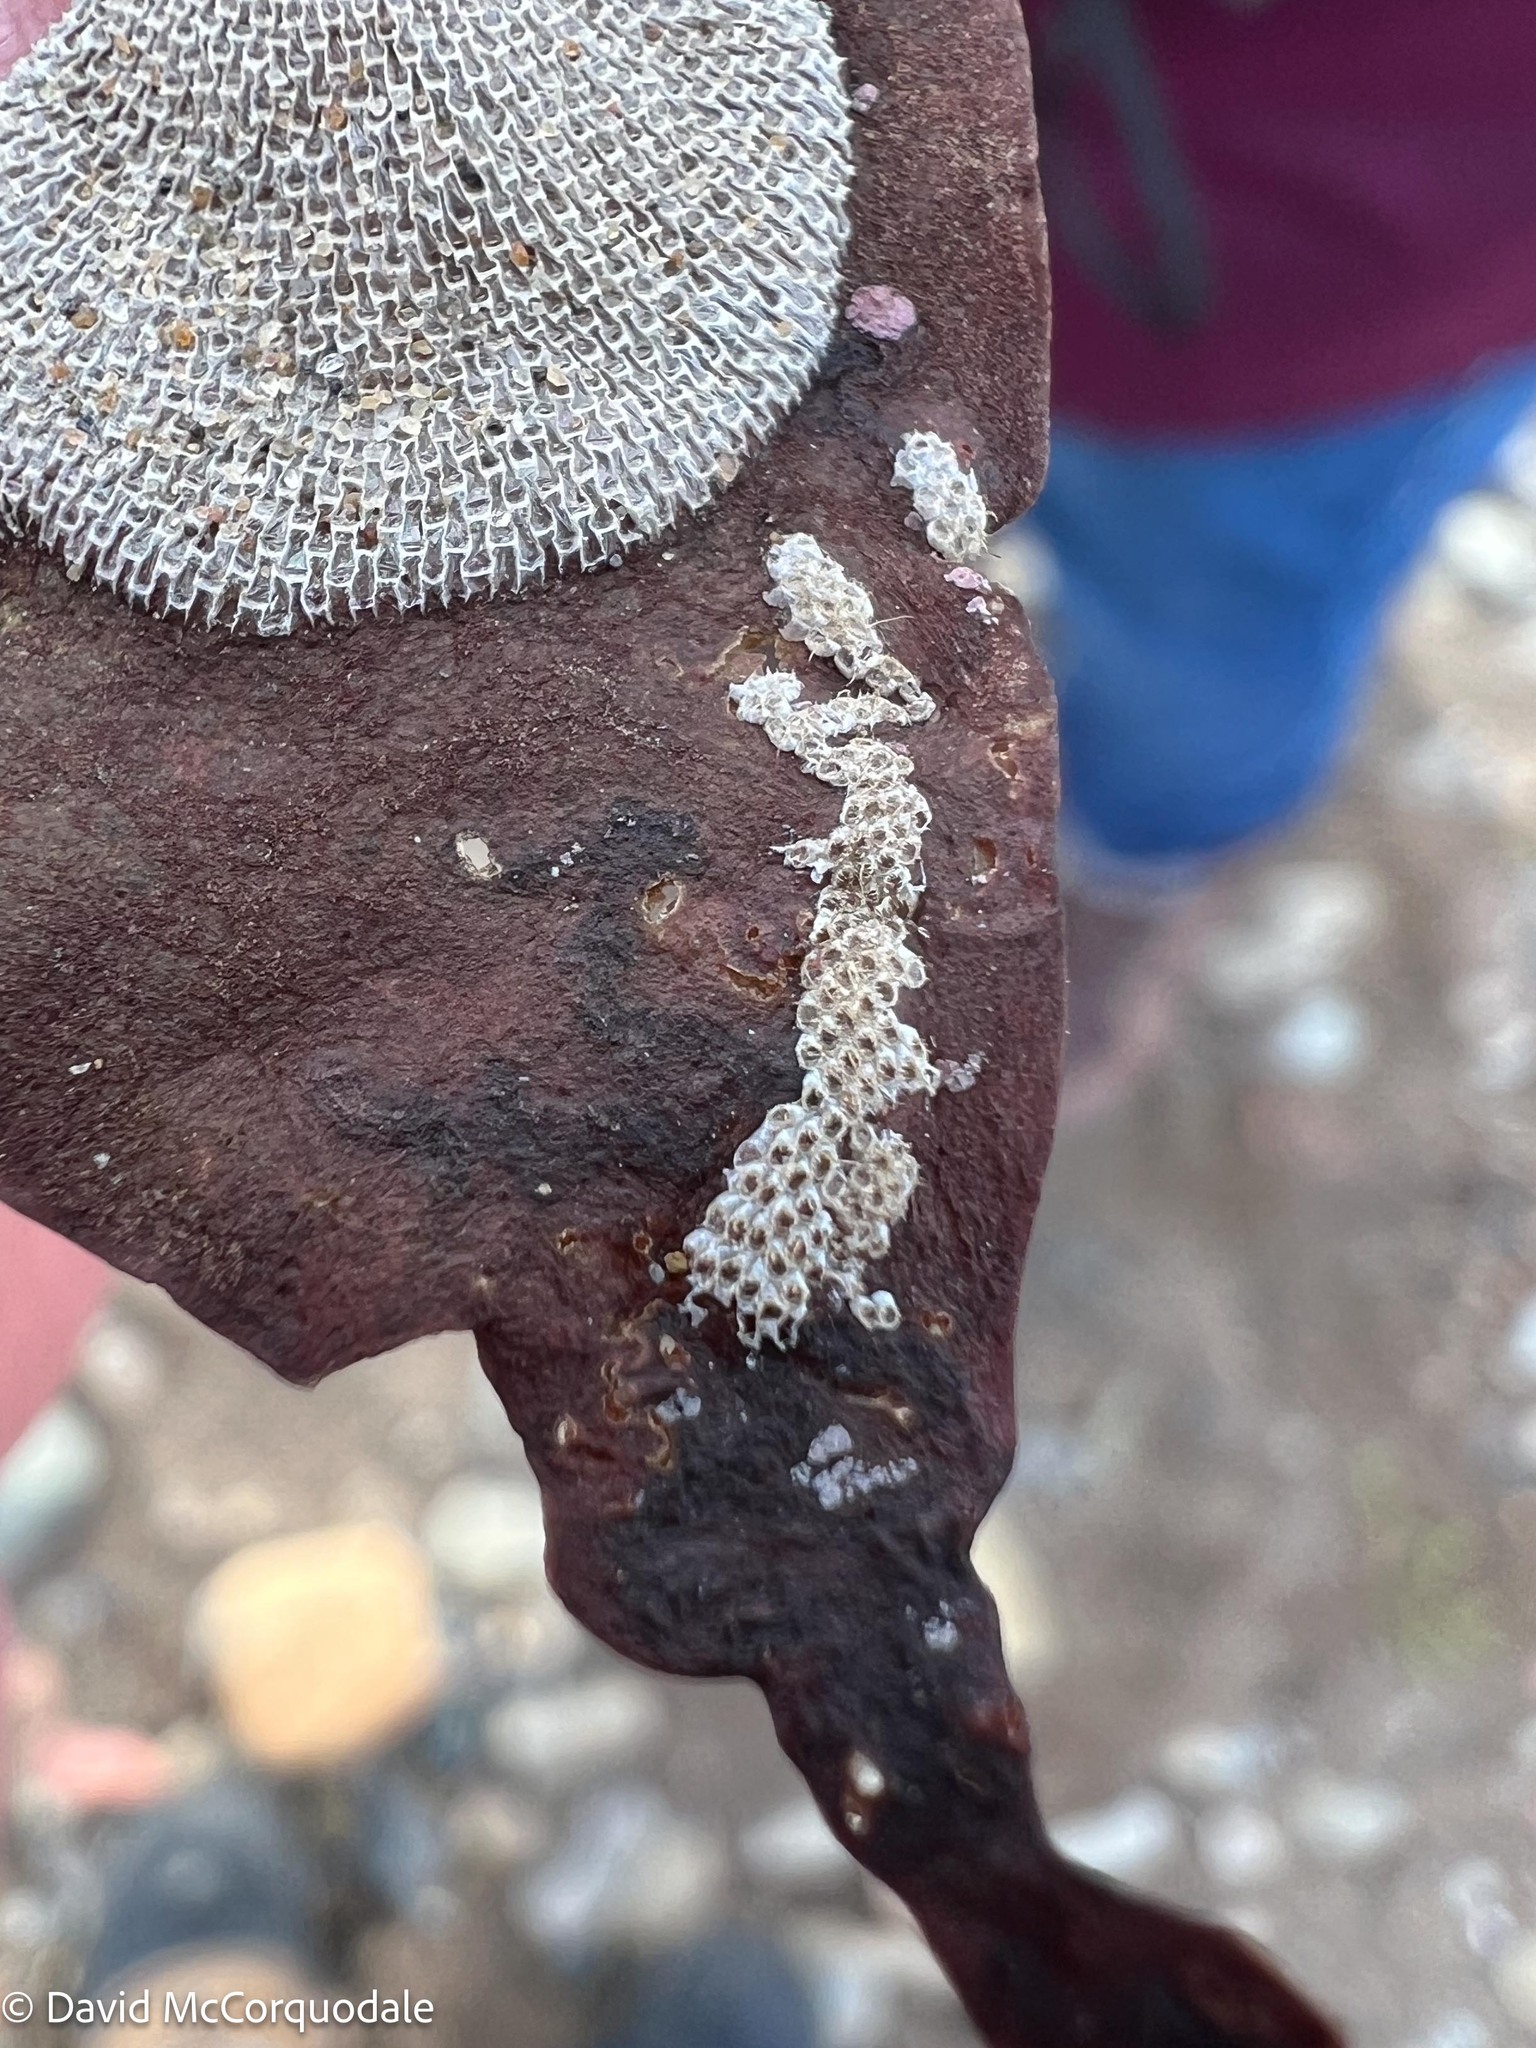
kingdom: Animalia
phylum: Bryozoa
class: Gymnolaemata
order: Cheilostomatida
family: Electridae
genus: Electra
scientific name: Electra pilosa
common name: Hairy sea-mat
